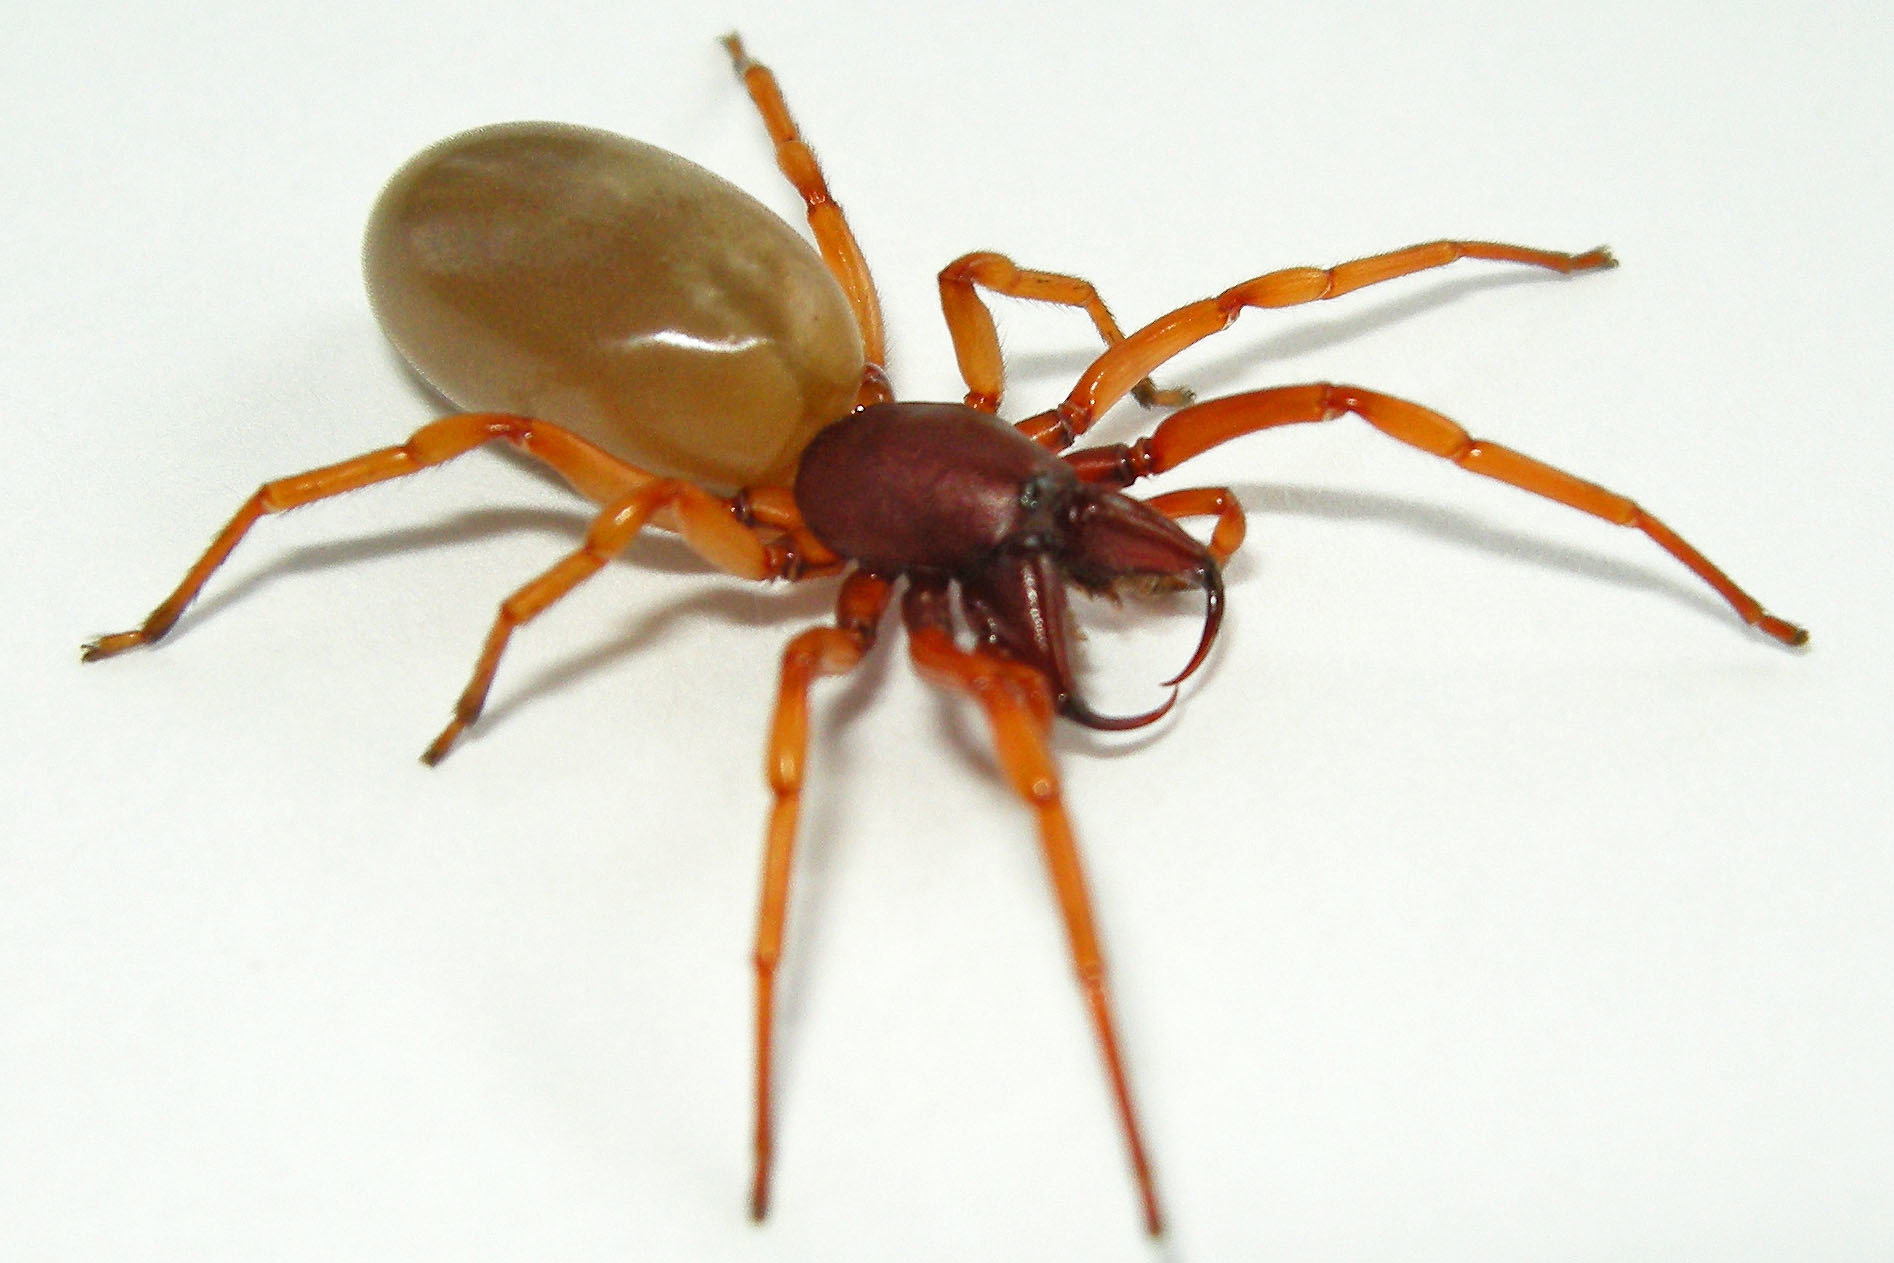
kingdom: Animalia
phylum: Arthropoda
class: Arachnida
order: Araneae
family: Dysderidae
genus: Dysdera
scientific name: Dysdera crocata
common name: Woodlouse spider
